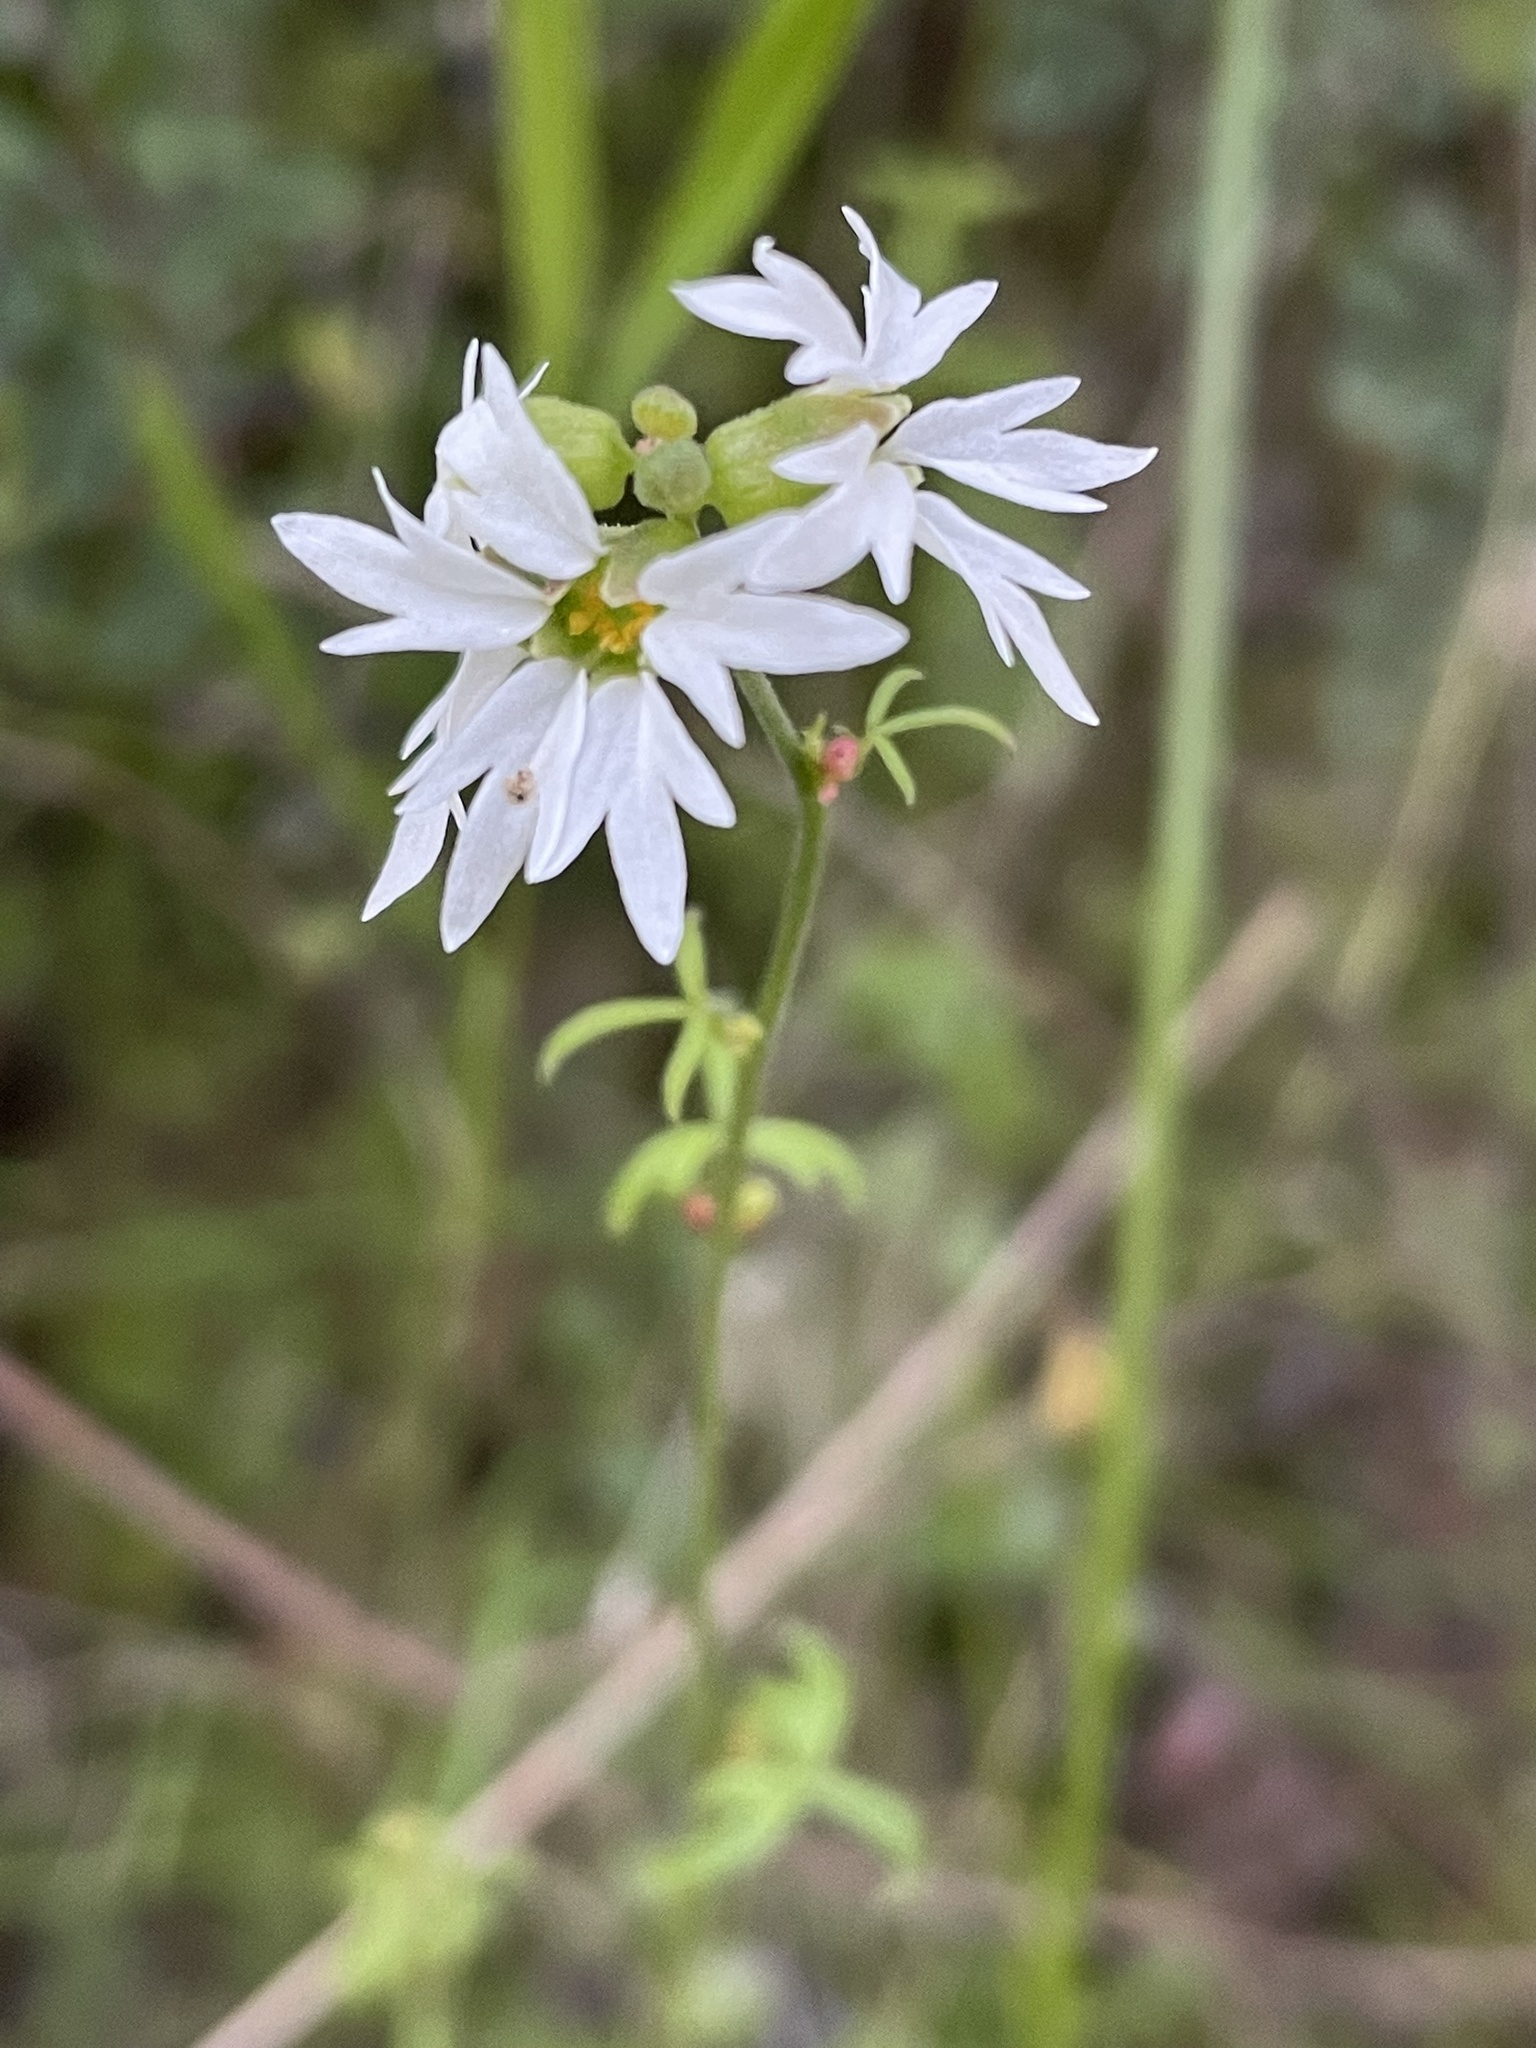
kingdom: Plantae
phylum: Tracheophyta
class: Magnoliopsida
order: Saxifragales
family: Saxifragaceae
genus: Lithophragma
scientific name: Lithophragma heterophyllum
